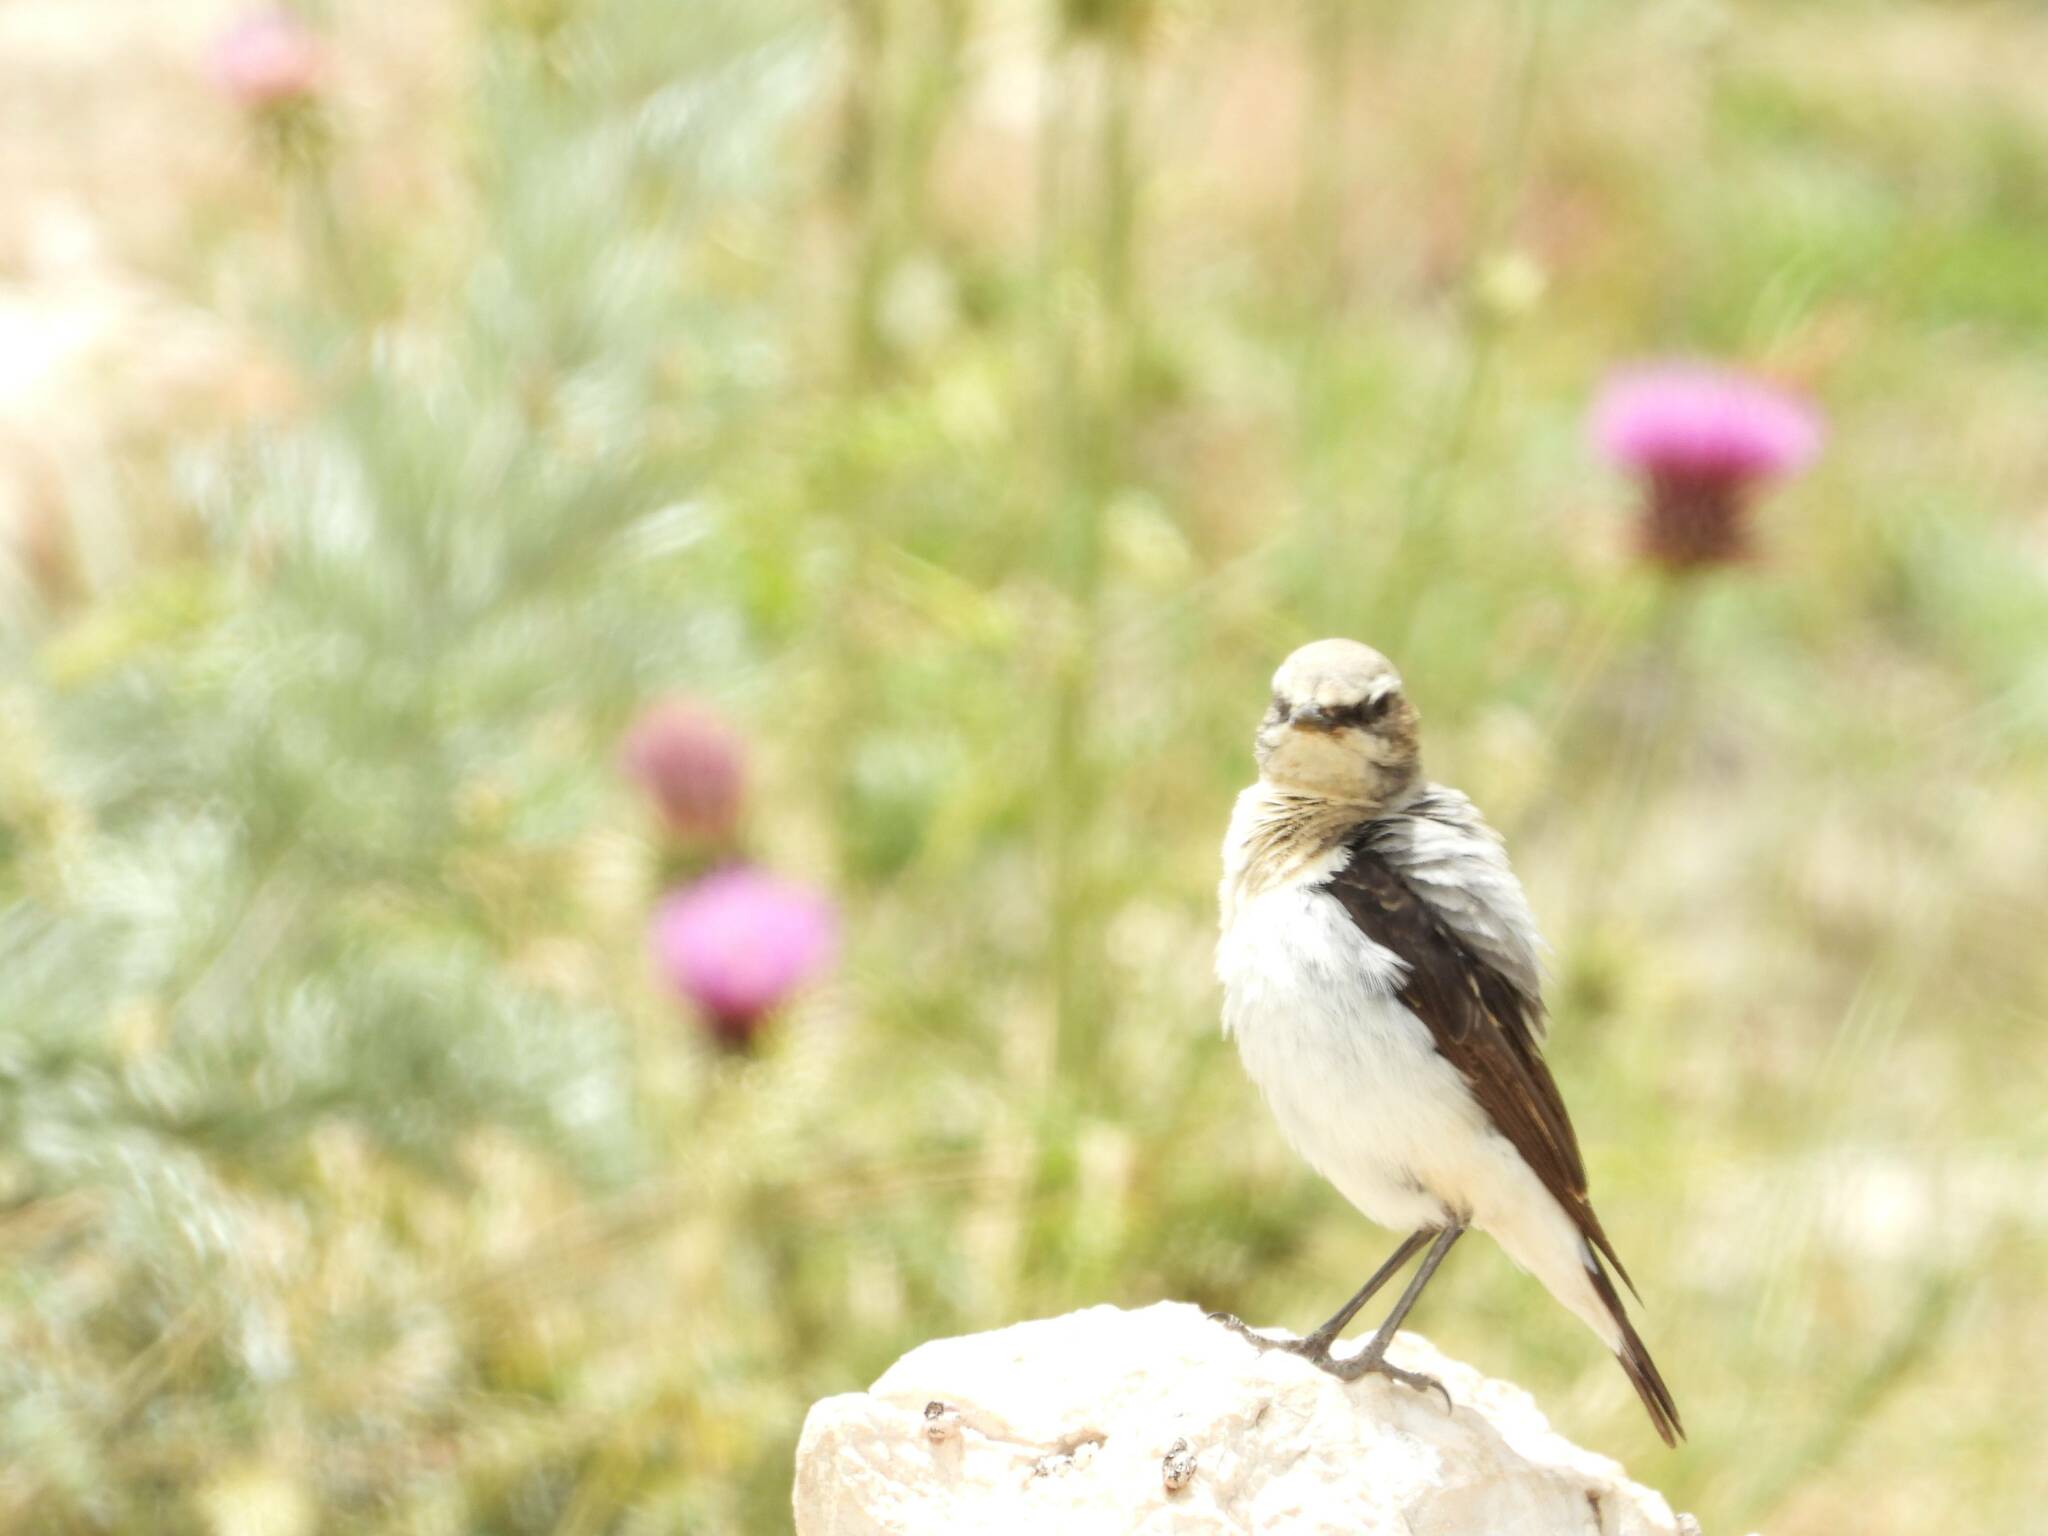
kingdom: Animalia
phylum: Chordata
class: Aves
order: Passeriformes
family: Muscicapidae
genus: Oenanthe
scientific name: Oenanthe oenanthe
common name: Northern wheatear
